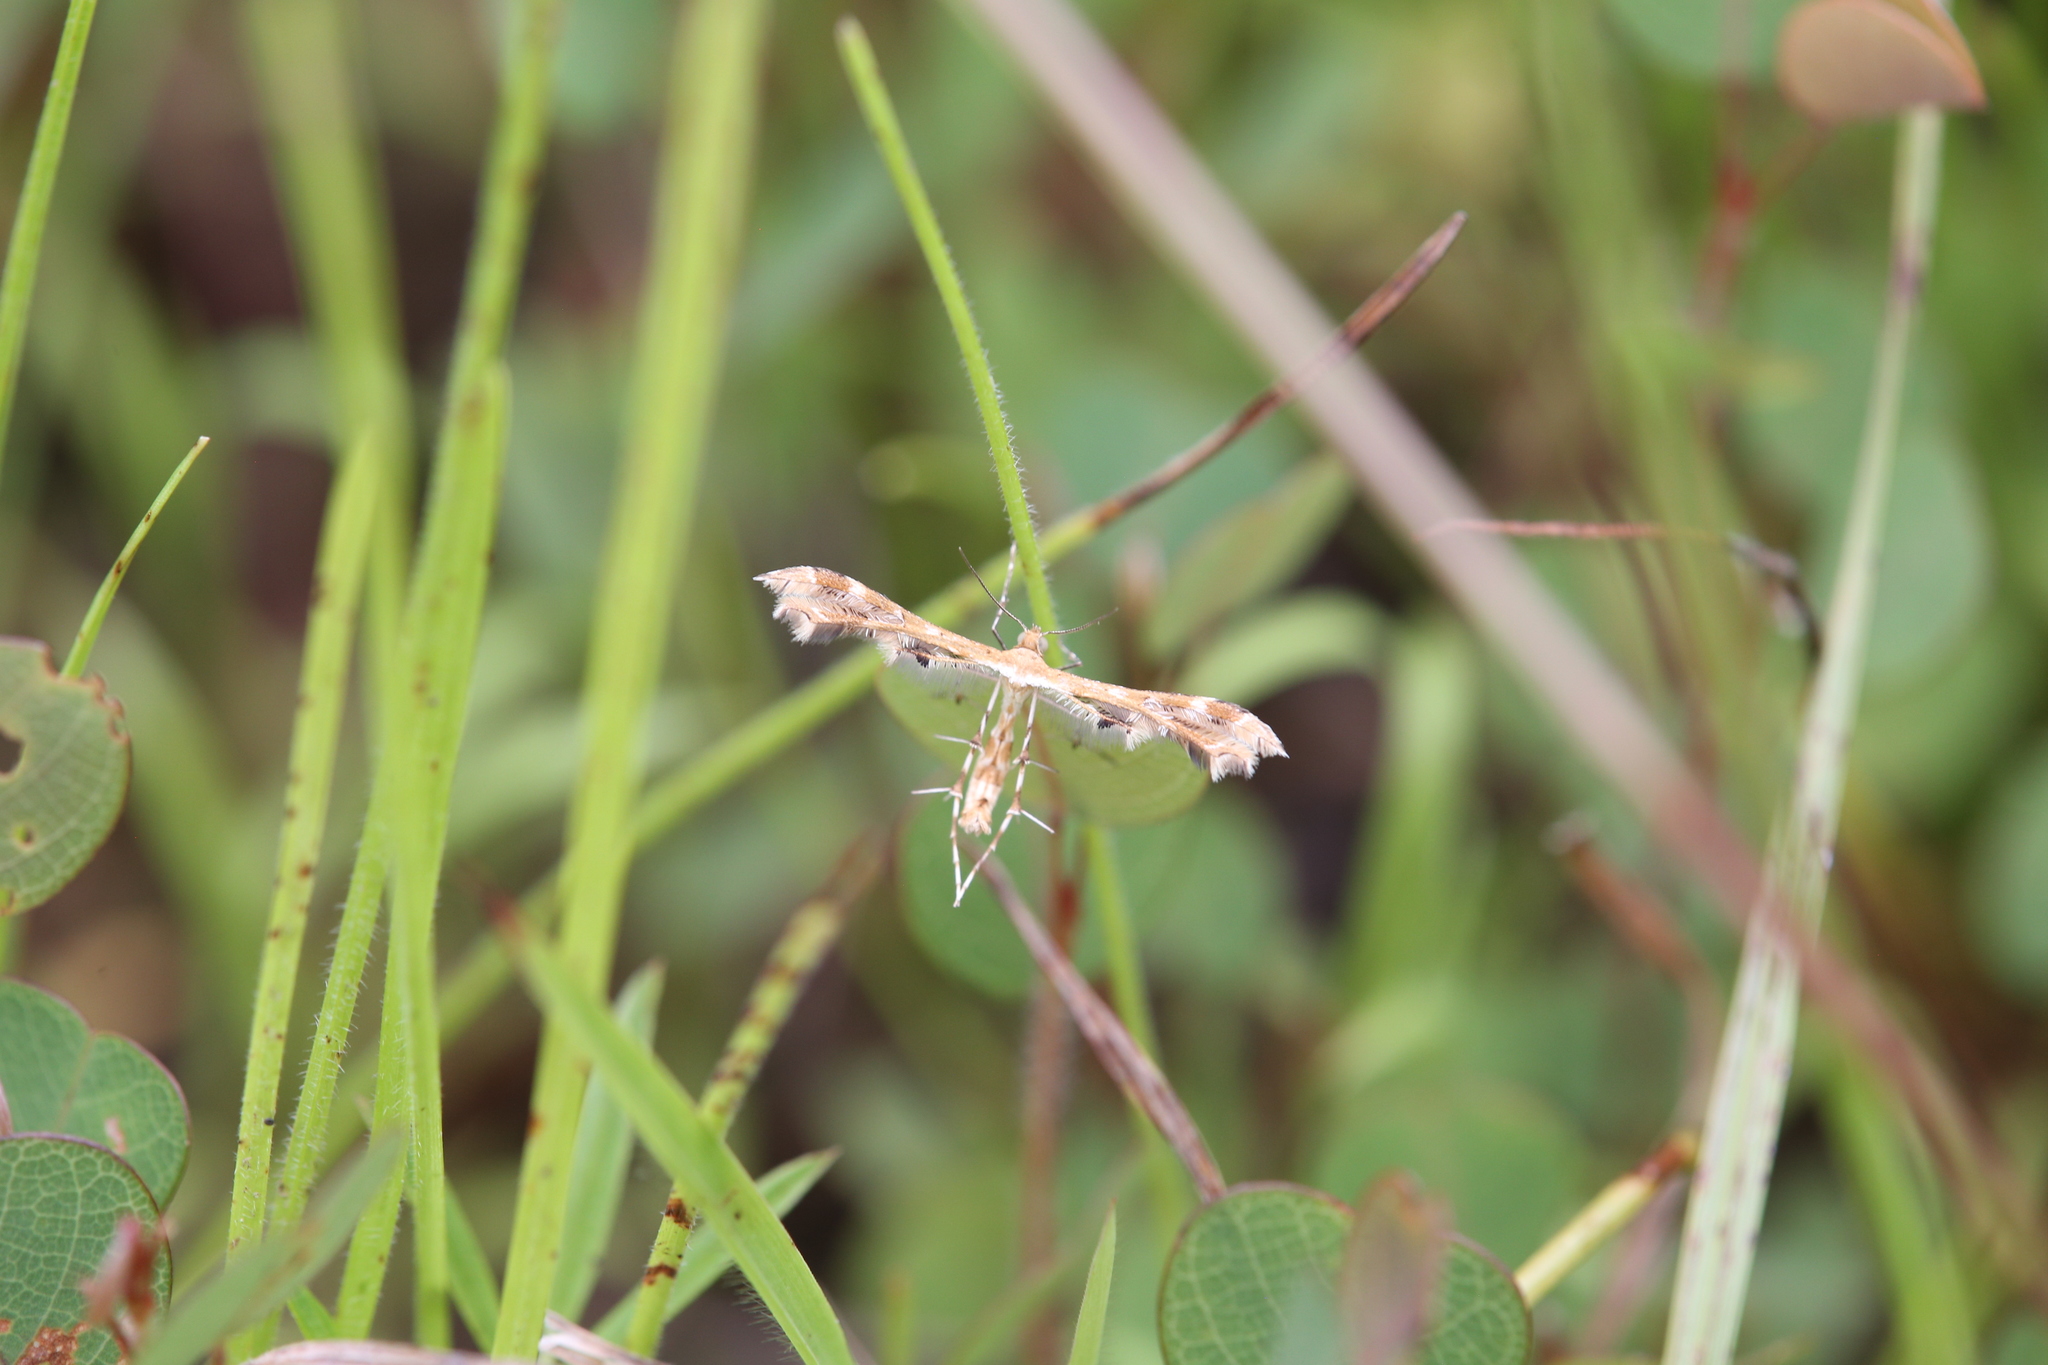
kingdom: Animalia
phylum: Arthropoda
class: Insecta
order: Lepidoptera
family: Pterophoridae
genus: Sphenarches
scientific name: Sphenarches anisodactylus
